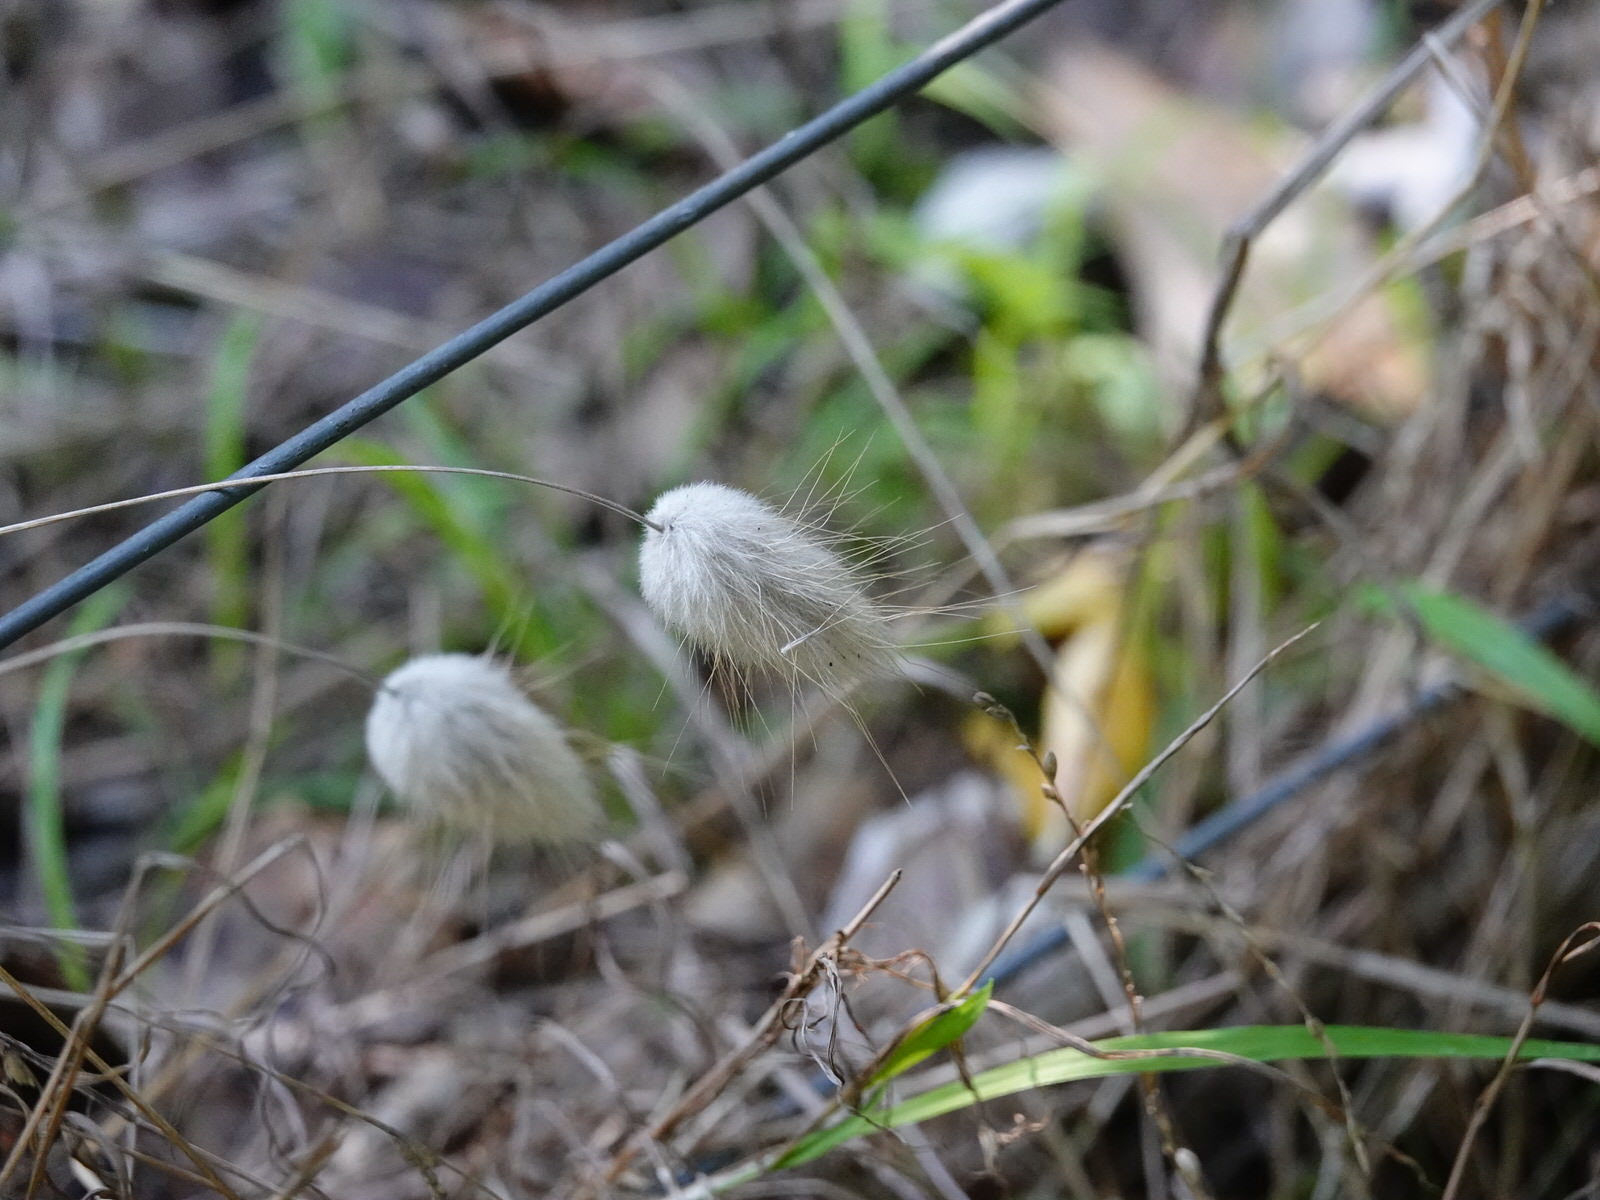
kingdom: Plantae
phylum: Tracheophyta
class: Liliopsida
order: Poales
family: Poaceae
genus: Lagurus
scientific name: Lagurus ovatus
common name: Hare's-tail
